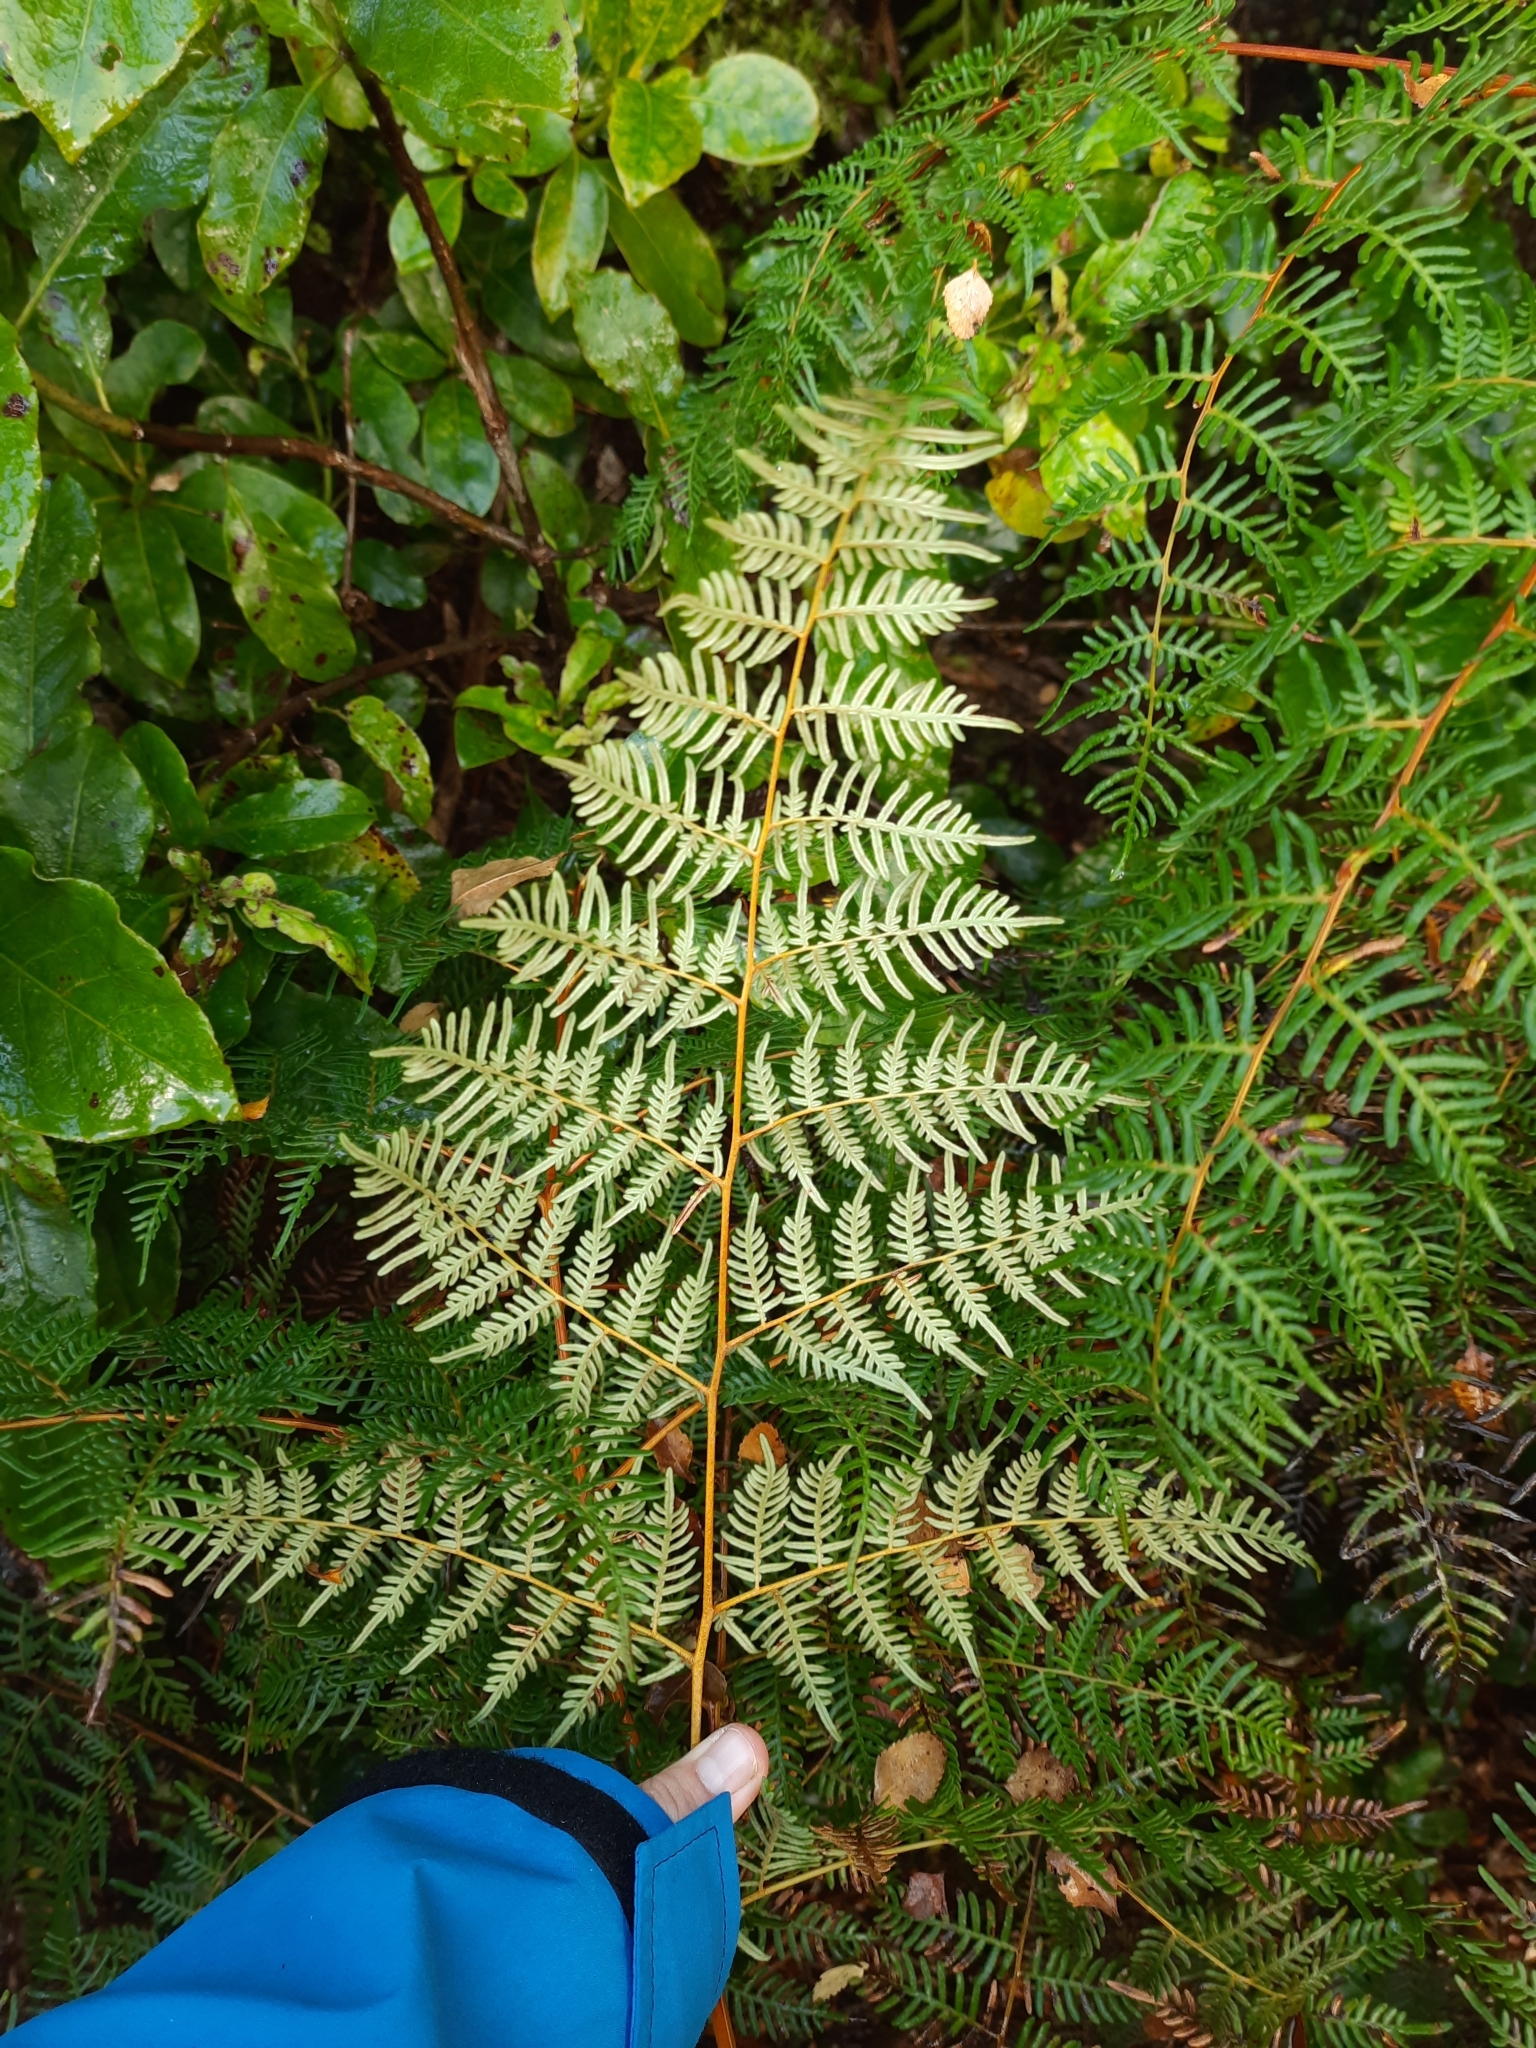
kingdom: Plantae
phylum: Tracheophyta
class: Polypodiopsida
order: Polypodiales
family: Dennstaedtiaceae
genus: Pteridium
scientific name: Pteridium esculentum
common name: Bracken fern
